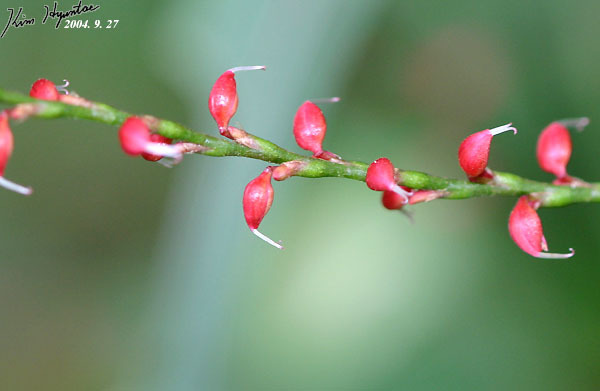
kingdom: Plantae
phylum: Tracheophyta
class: Magnoliopsida
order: Caryophyllales
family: Polygonaceae
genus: Persicaria
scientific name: Persicaria filiformis
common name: Asian jumpseed
